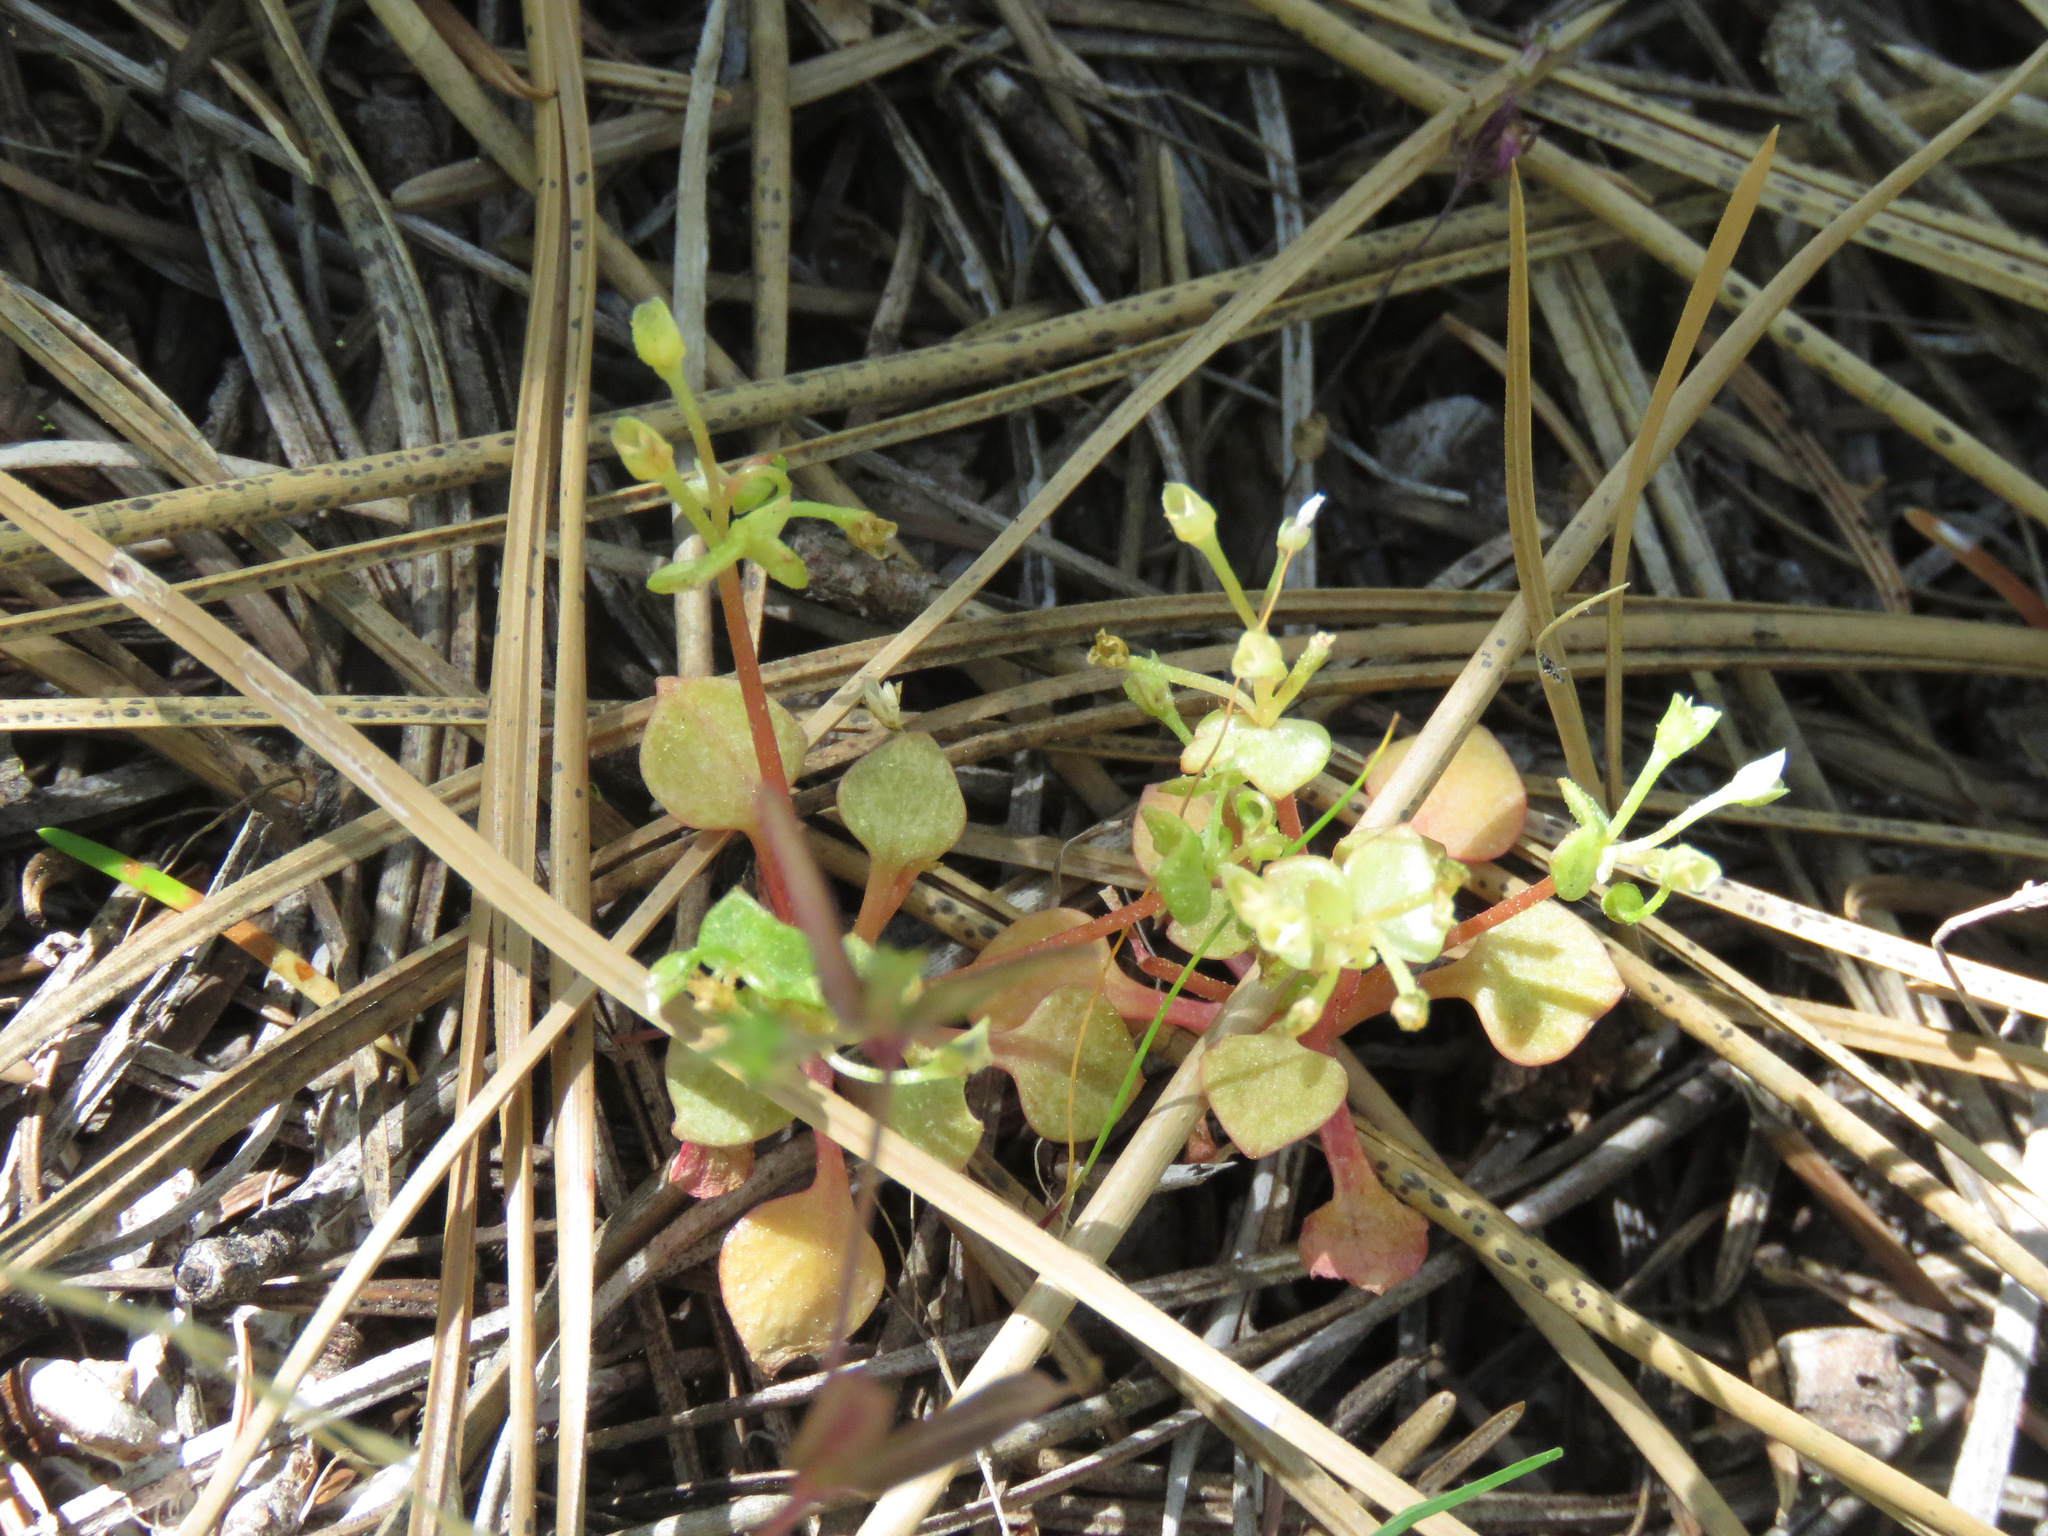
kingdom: Plantae
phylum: Tracheophyta
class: Magnoliopsida
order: Caryophyllales
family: Montiaceae
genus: Claytonia
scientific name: Claytonia rubra
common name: Erubescent miner's-lettuce
